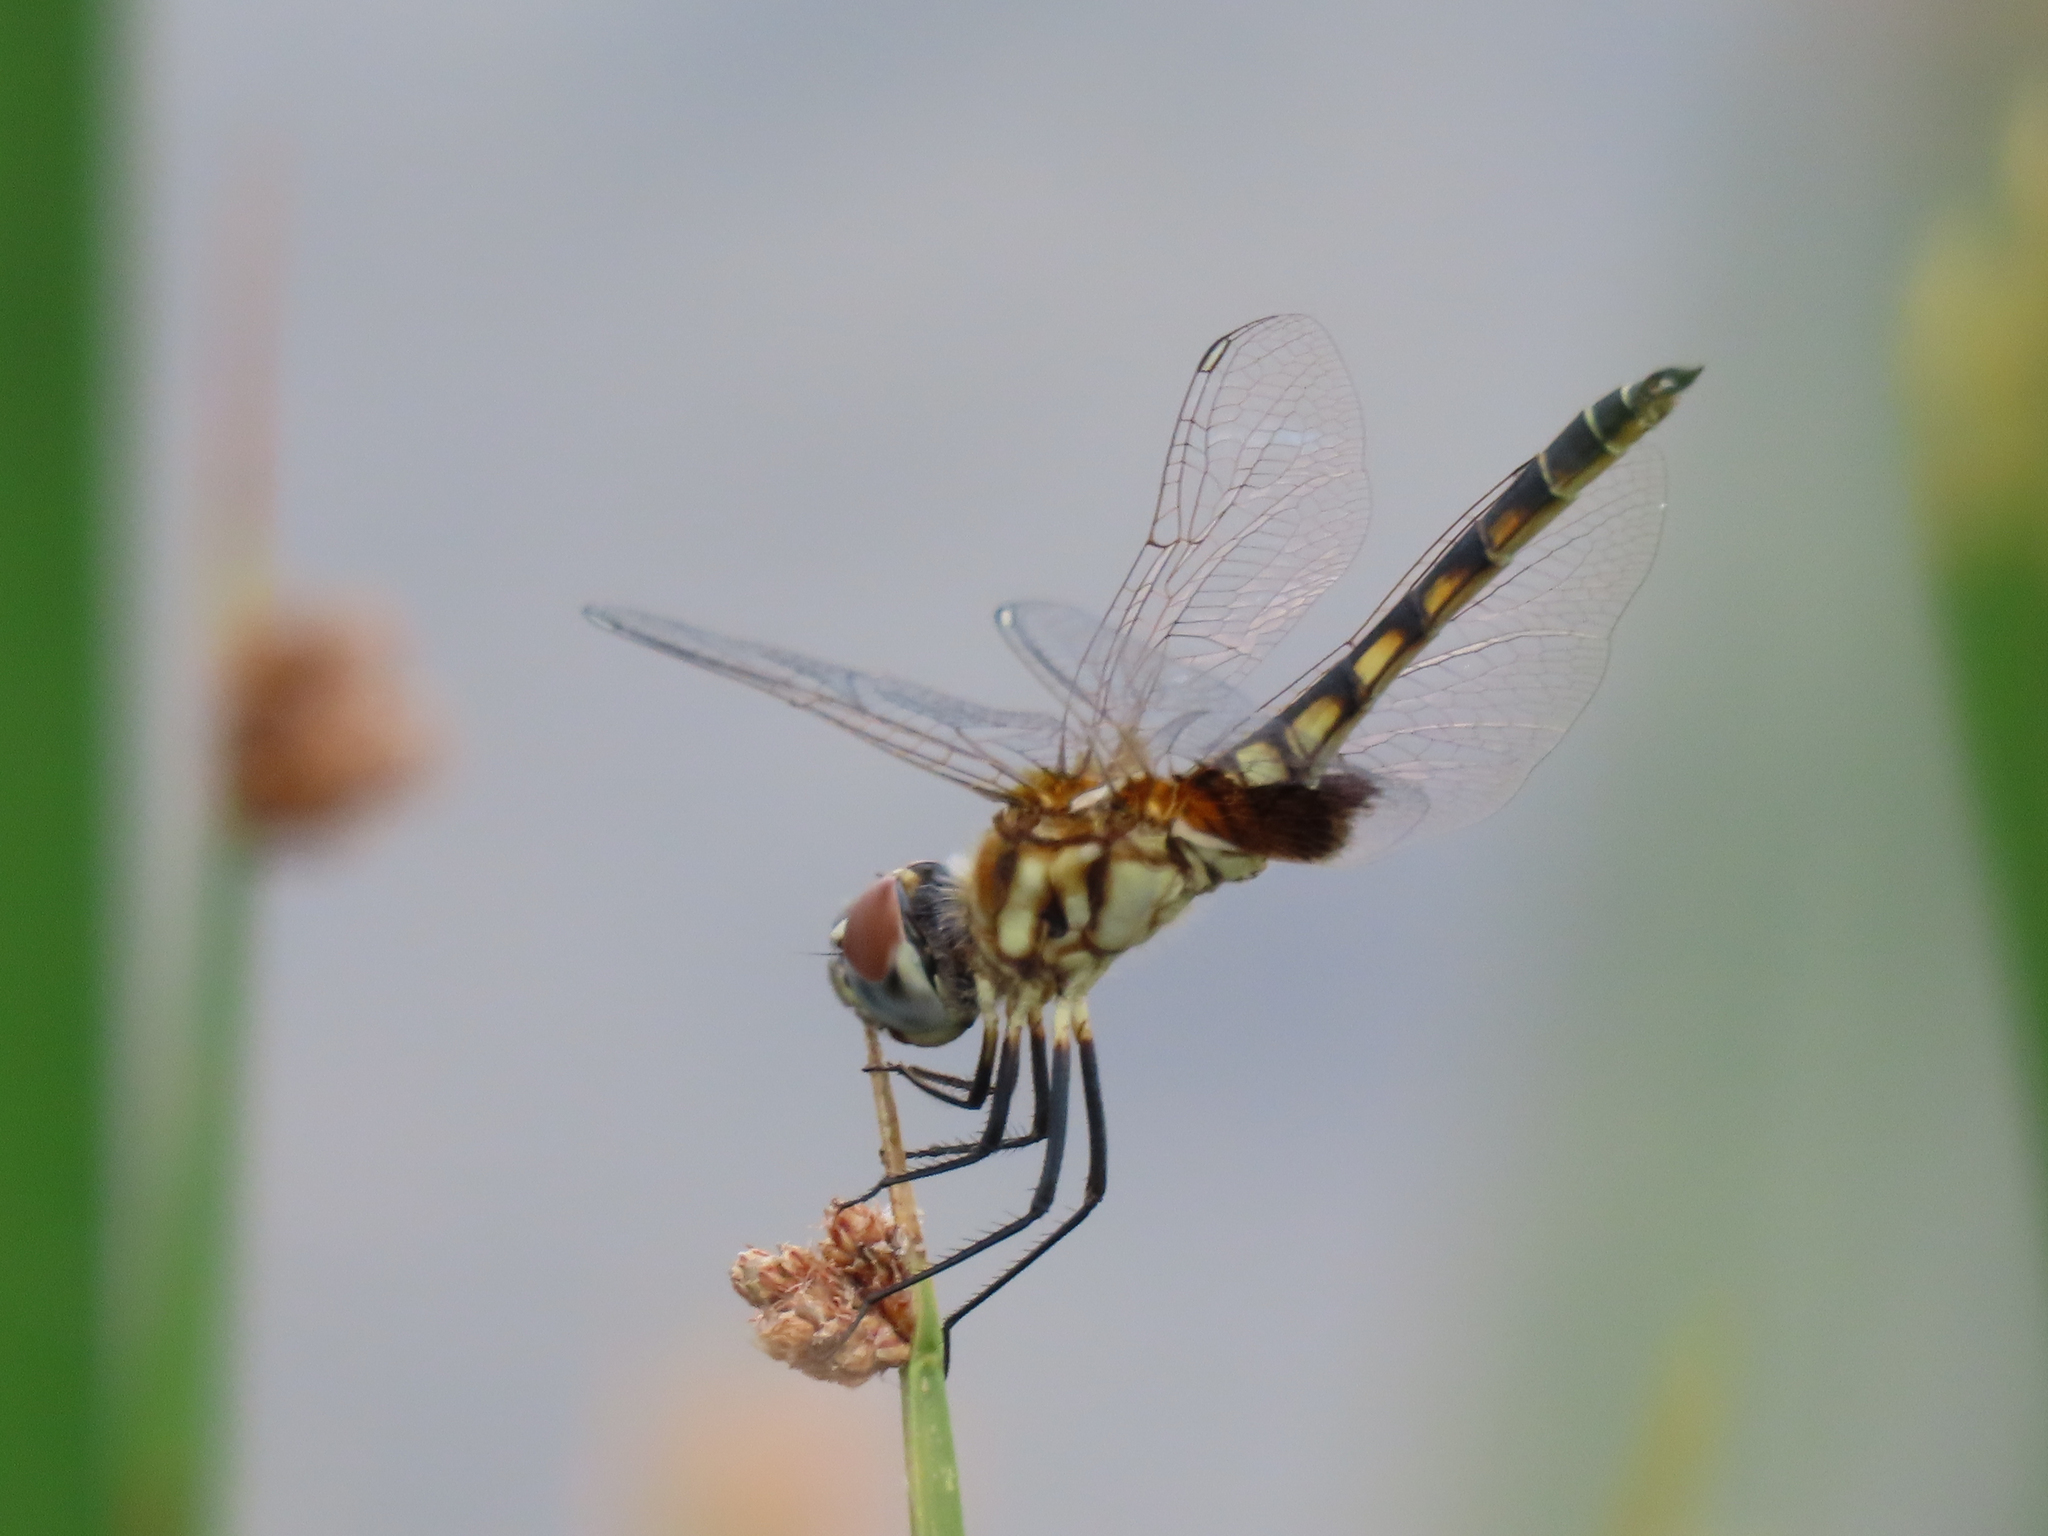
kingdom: Animalia
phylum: Arthropoda
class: Insecta
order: Odonata
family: Libellulidae
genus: Macrodiplax
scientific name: Macrodiplax balteata
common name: Marl pennant
